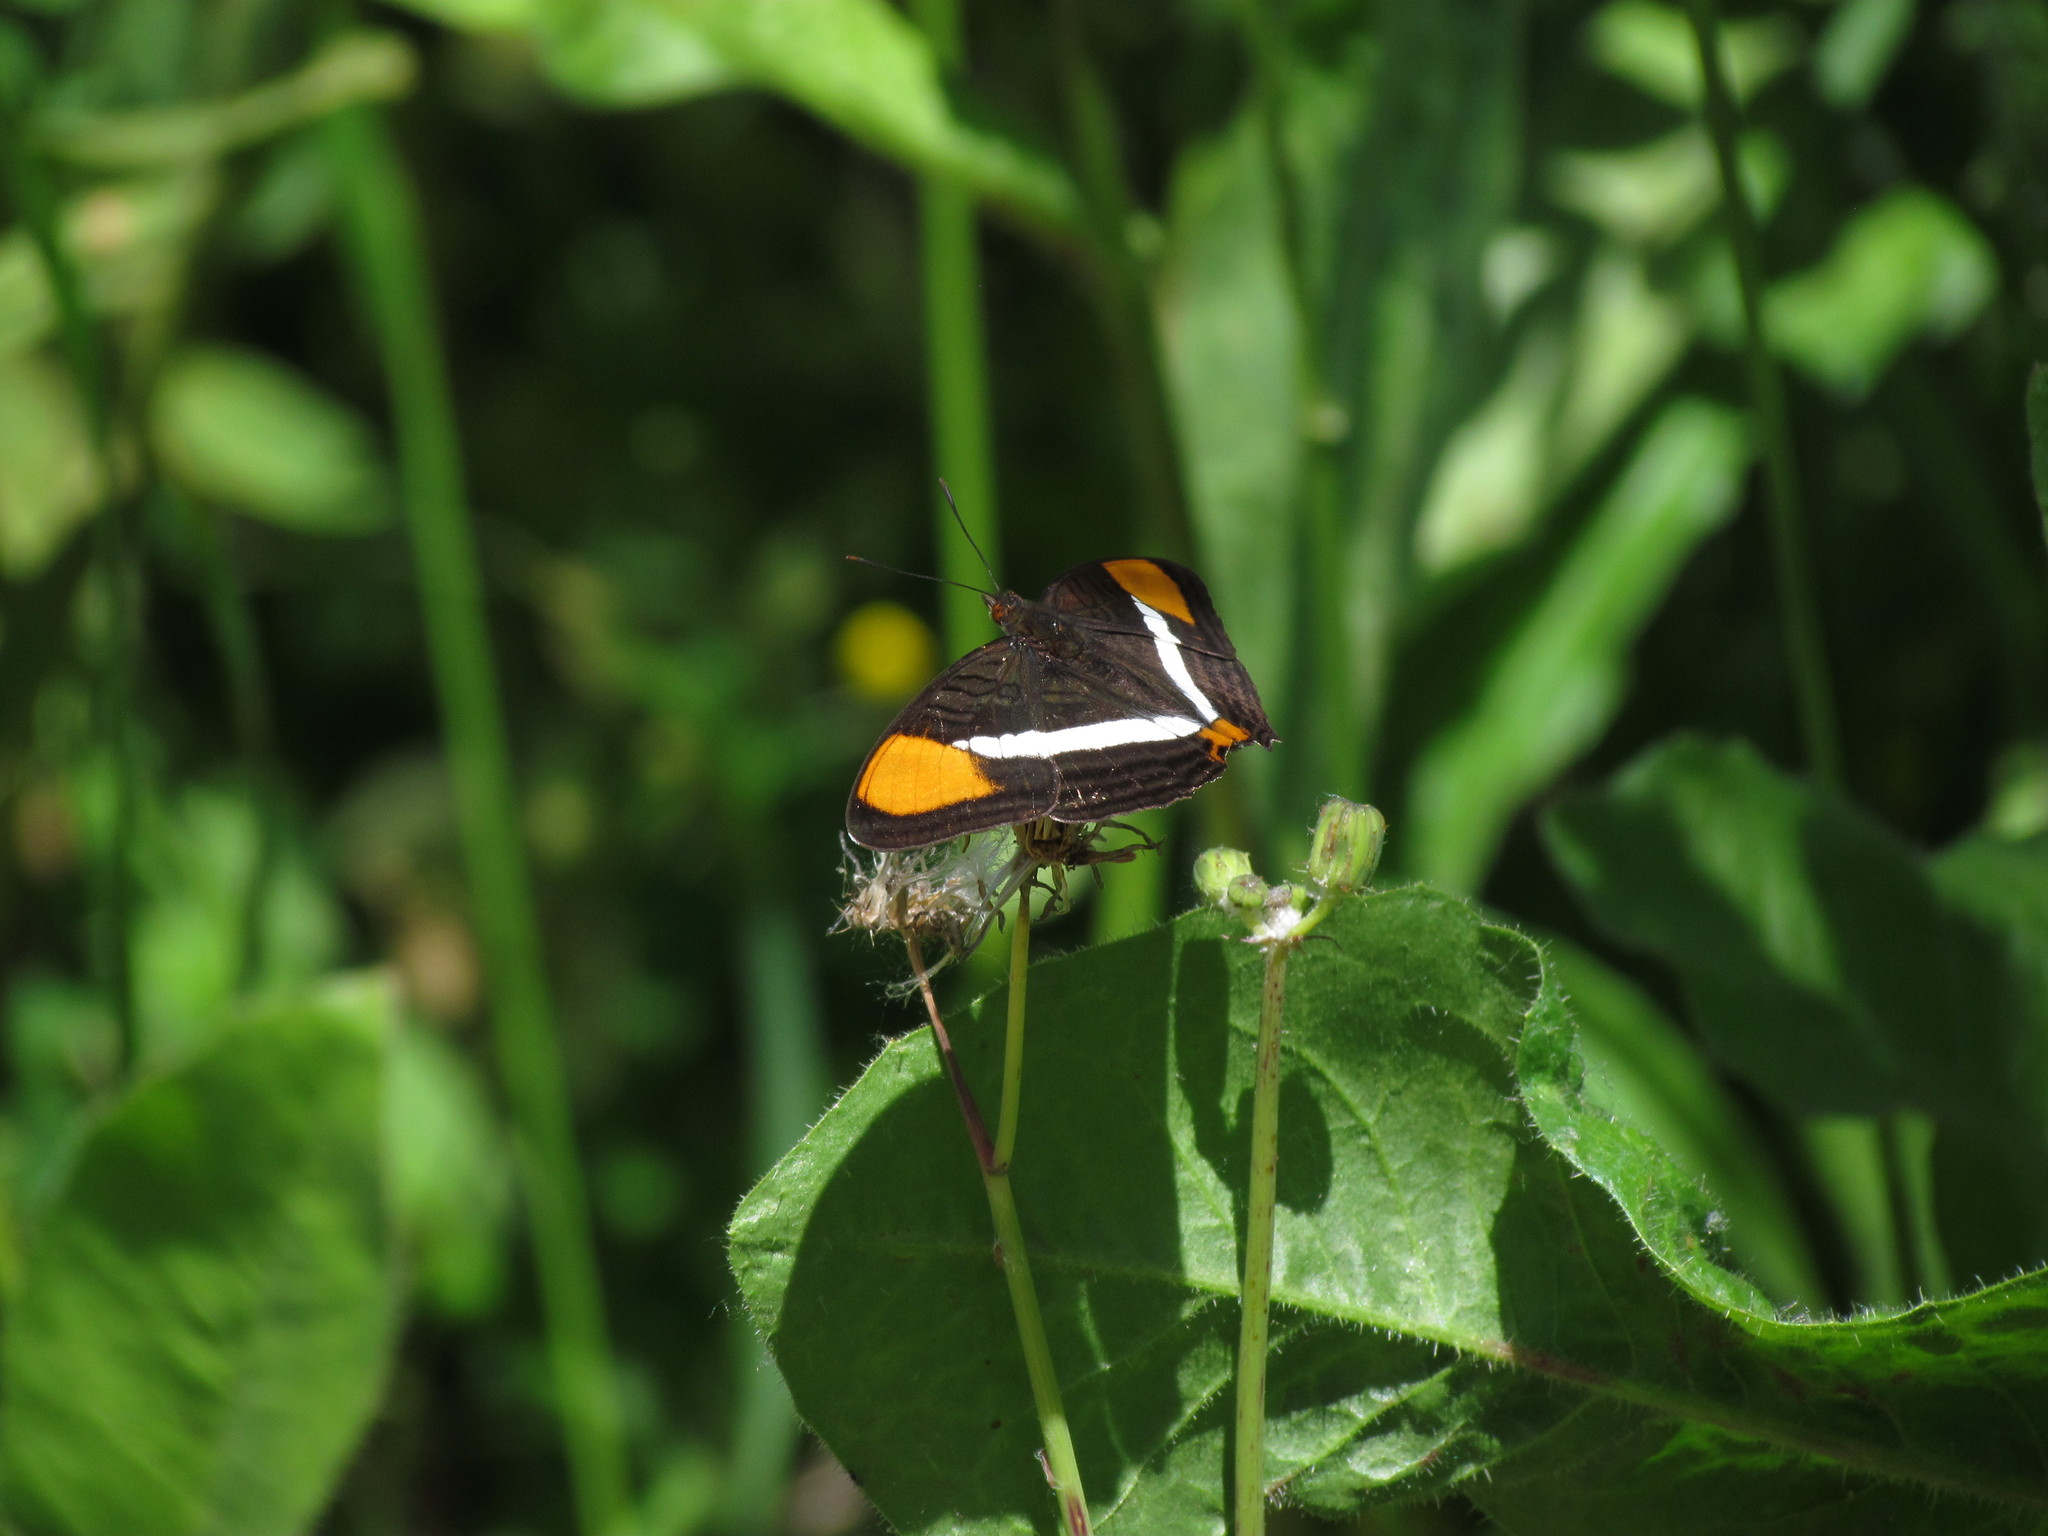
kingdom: Animalia
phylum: Arthropoda
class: Insecta
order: Lepidoptera
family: Nymphalidae
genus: Limenitis
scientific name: Limenitis syma
